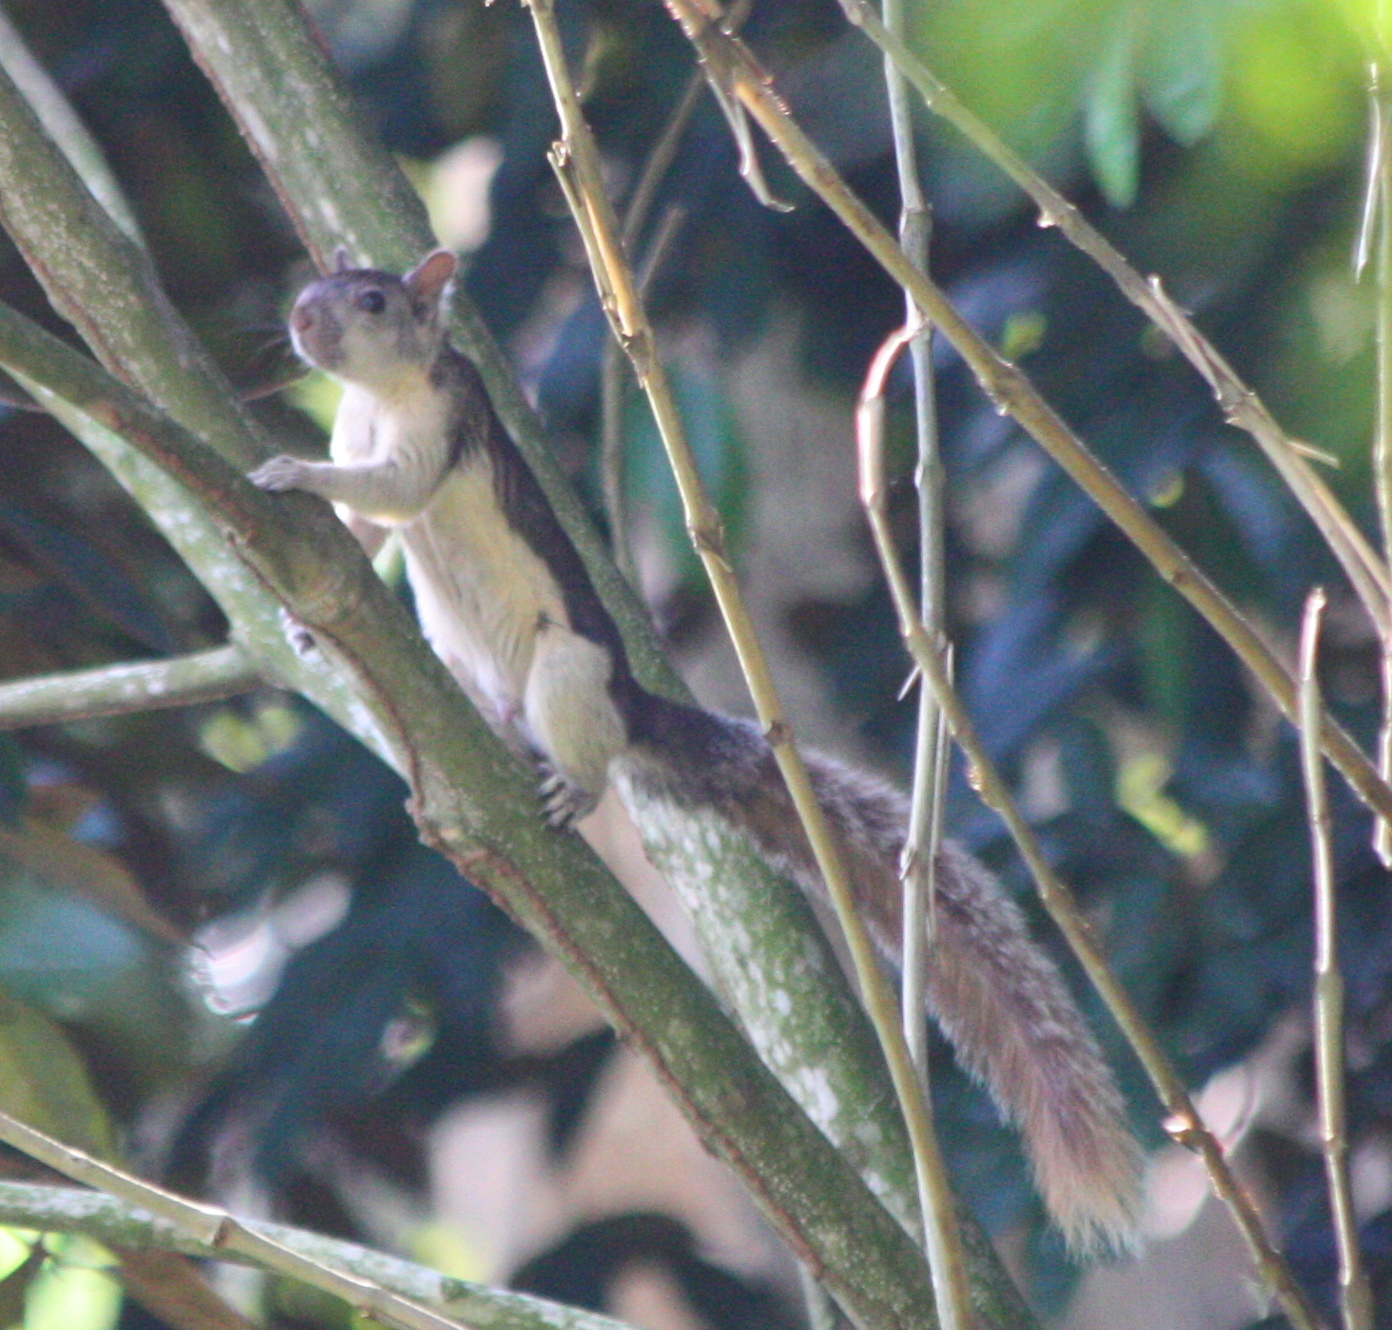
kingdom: Animalia
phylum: Chordata
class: Mammalia
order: Rodentia
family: Sciuridae
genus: Sciurus
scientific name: Sciurus variegatoides
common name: Variegated squirrel
